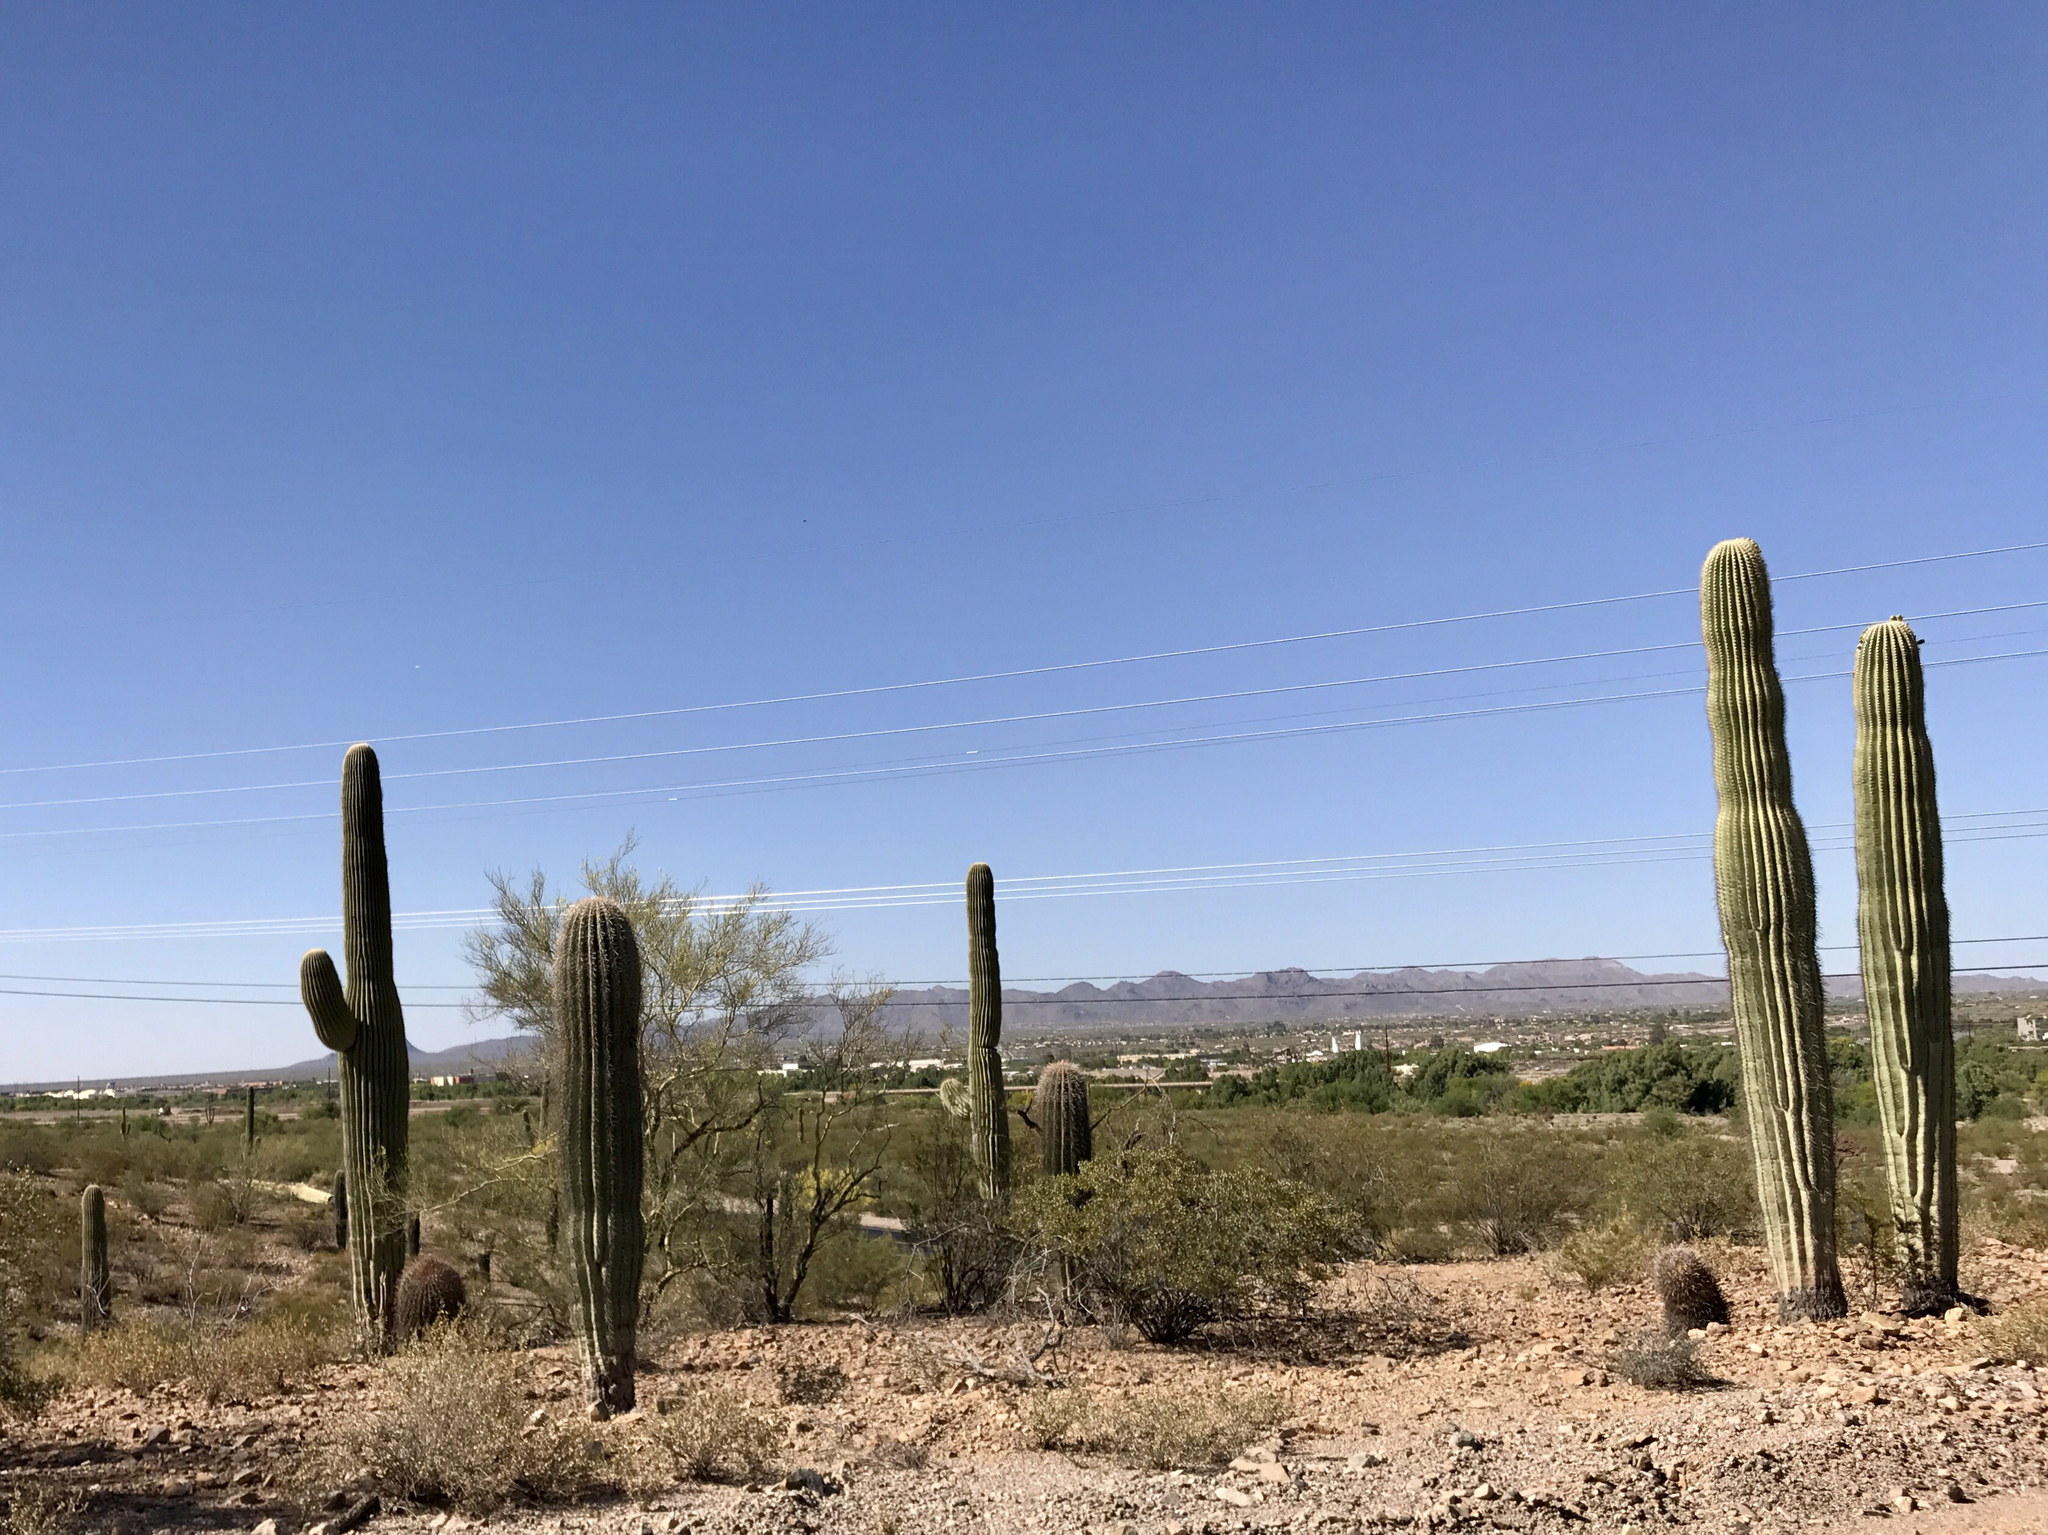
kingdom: Plantae
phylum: Tracheophyta
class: Magnoliopsida
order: Caryophyllales
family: Cactaceae
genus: Carnegiea
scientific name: Carnegiea gigantea
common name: Saguaro
